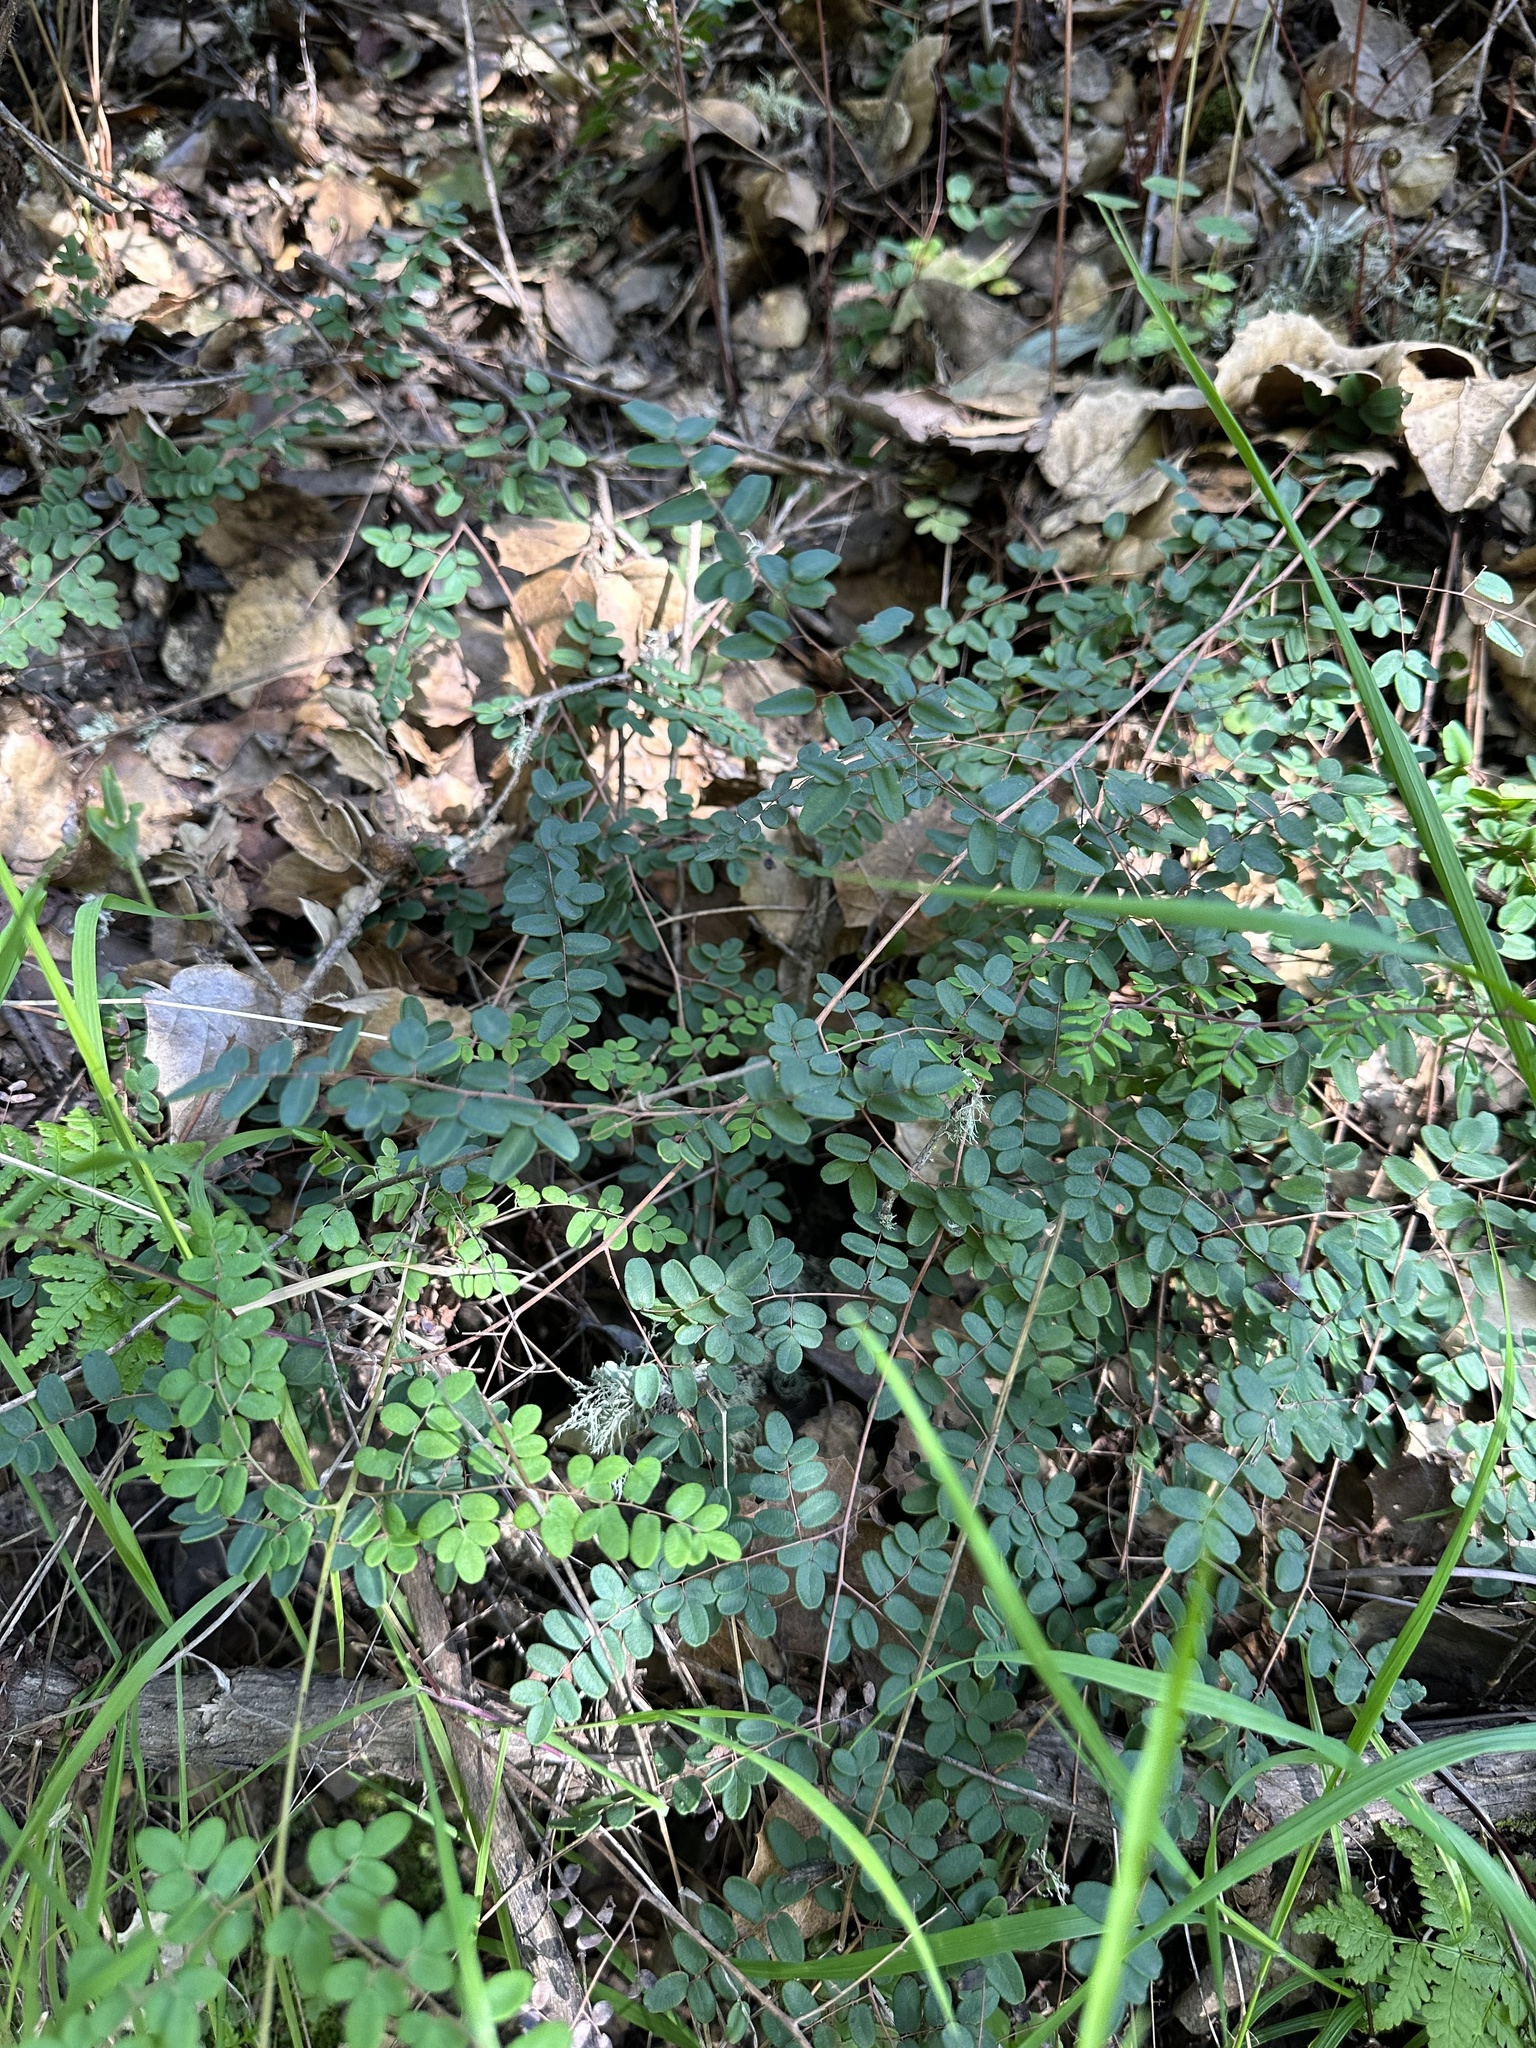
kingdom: Plantae
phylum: Tracheophyta
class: Polypodiopsida
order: Polypodiales
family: Pteridaceae
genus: Pellaea
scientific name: Pellaea andromedifolia
